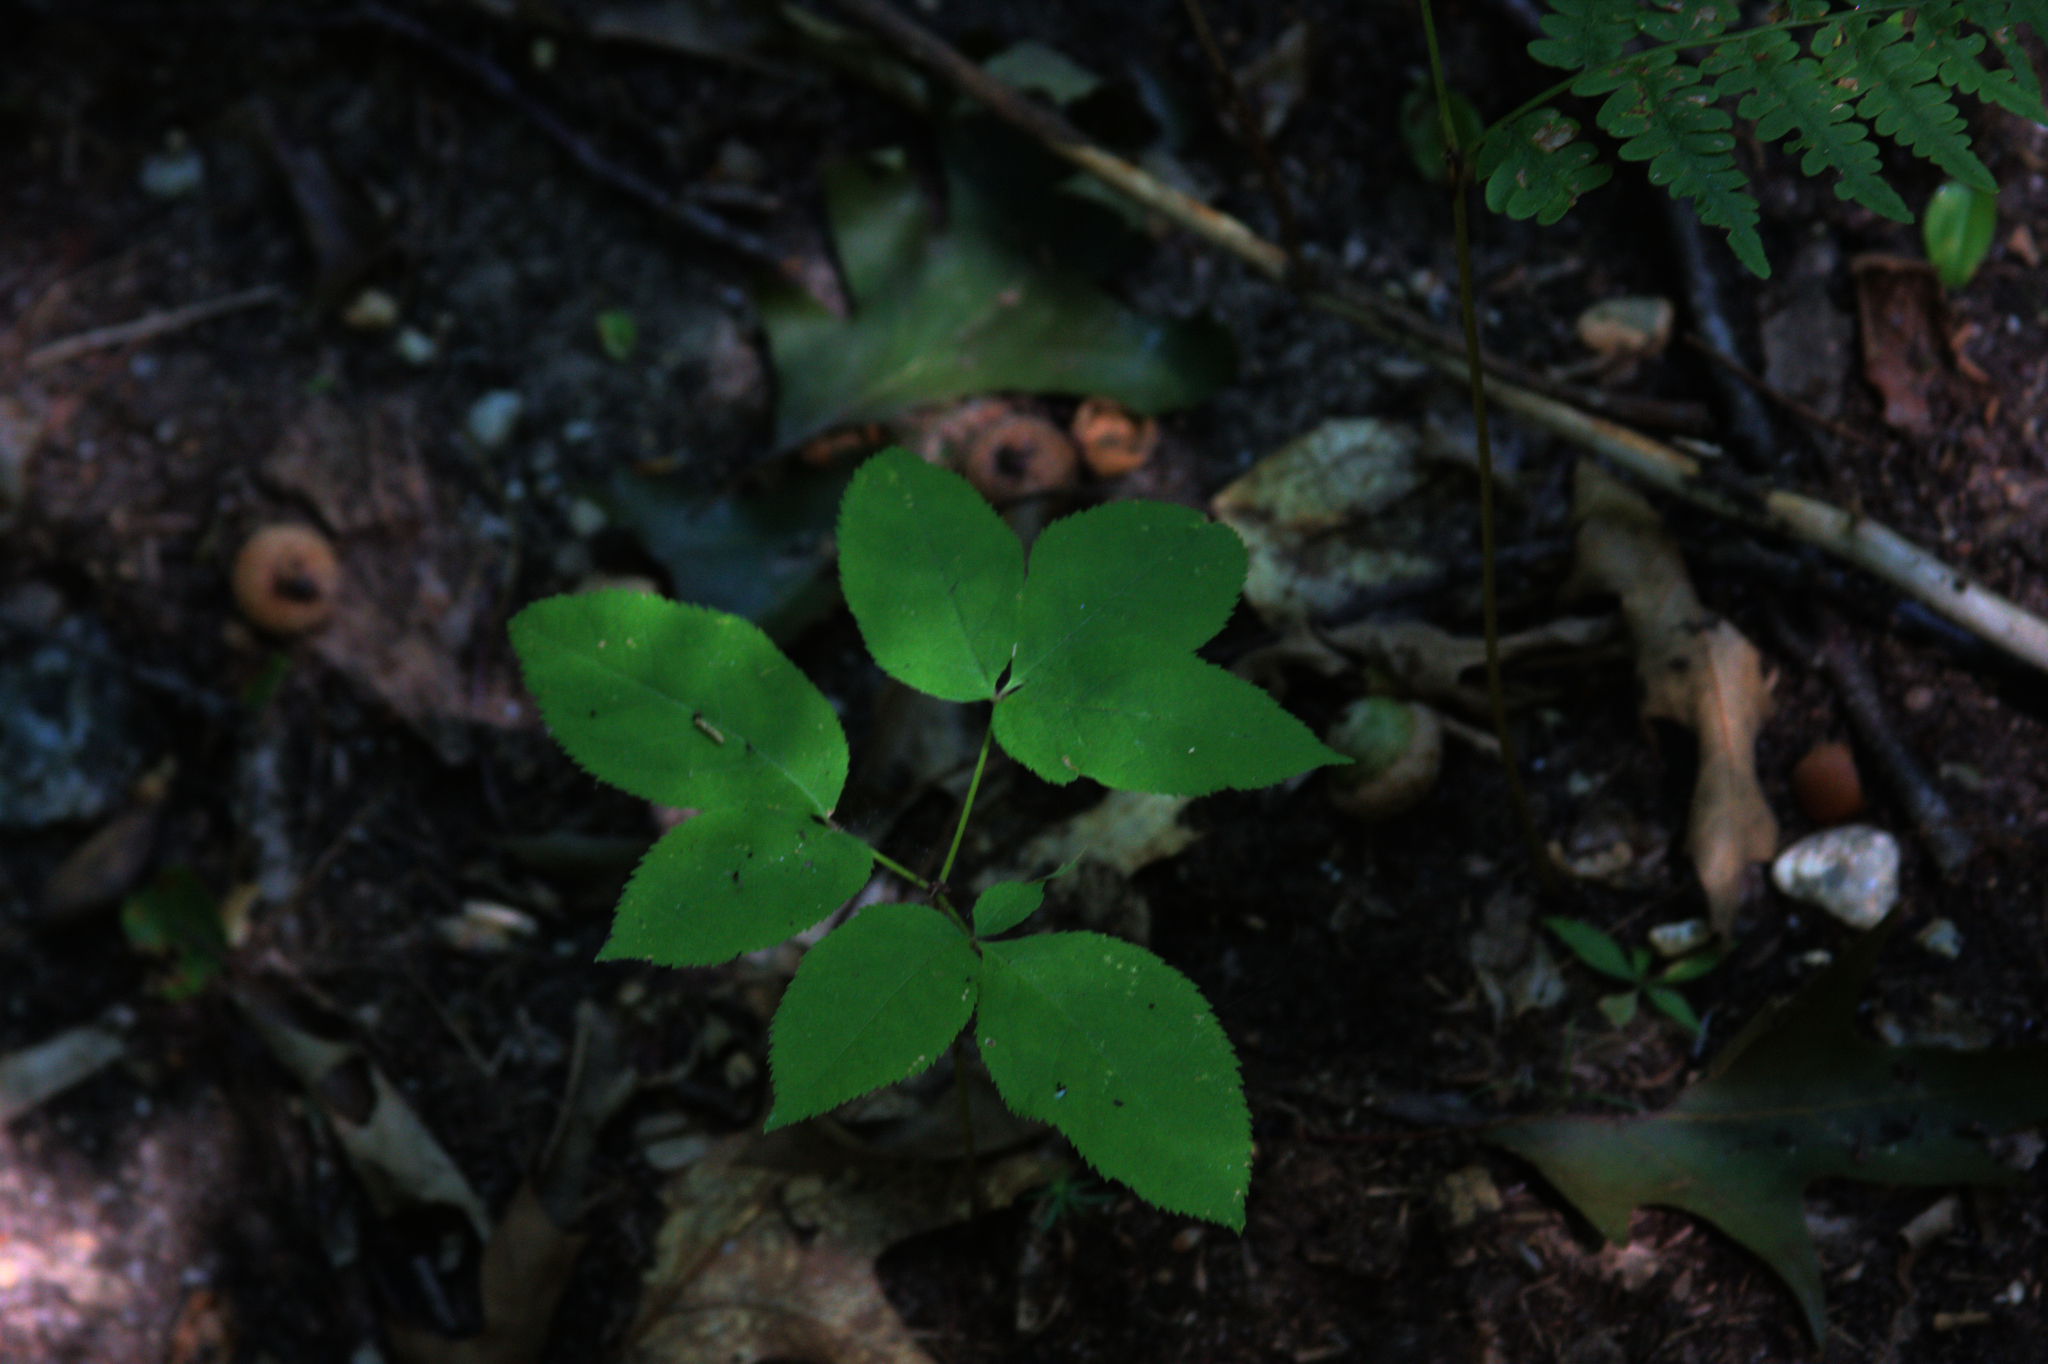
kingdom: Plantae
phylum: Tracheophyta
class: Magnoliopsida
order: Apiales
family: Araliaceae
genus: Aralia
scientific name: Aralia nudicaulis
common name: Wild sarsaparilla
